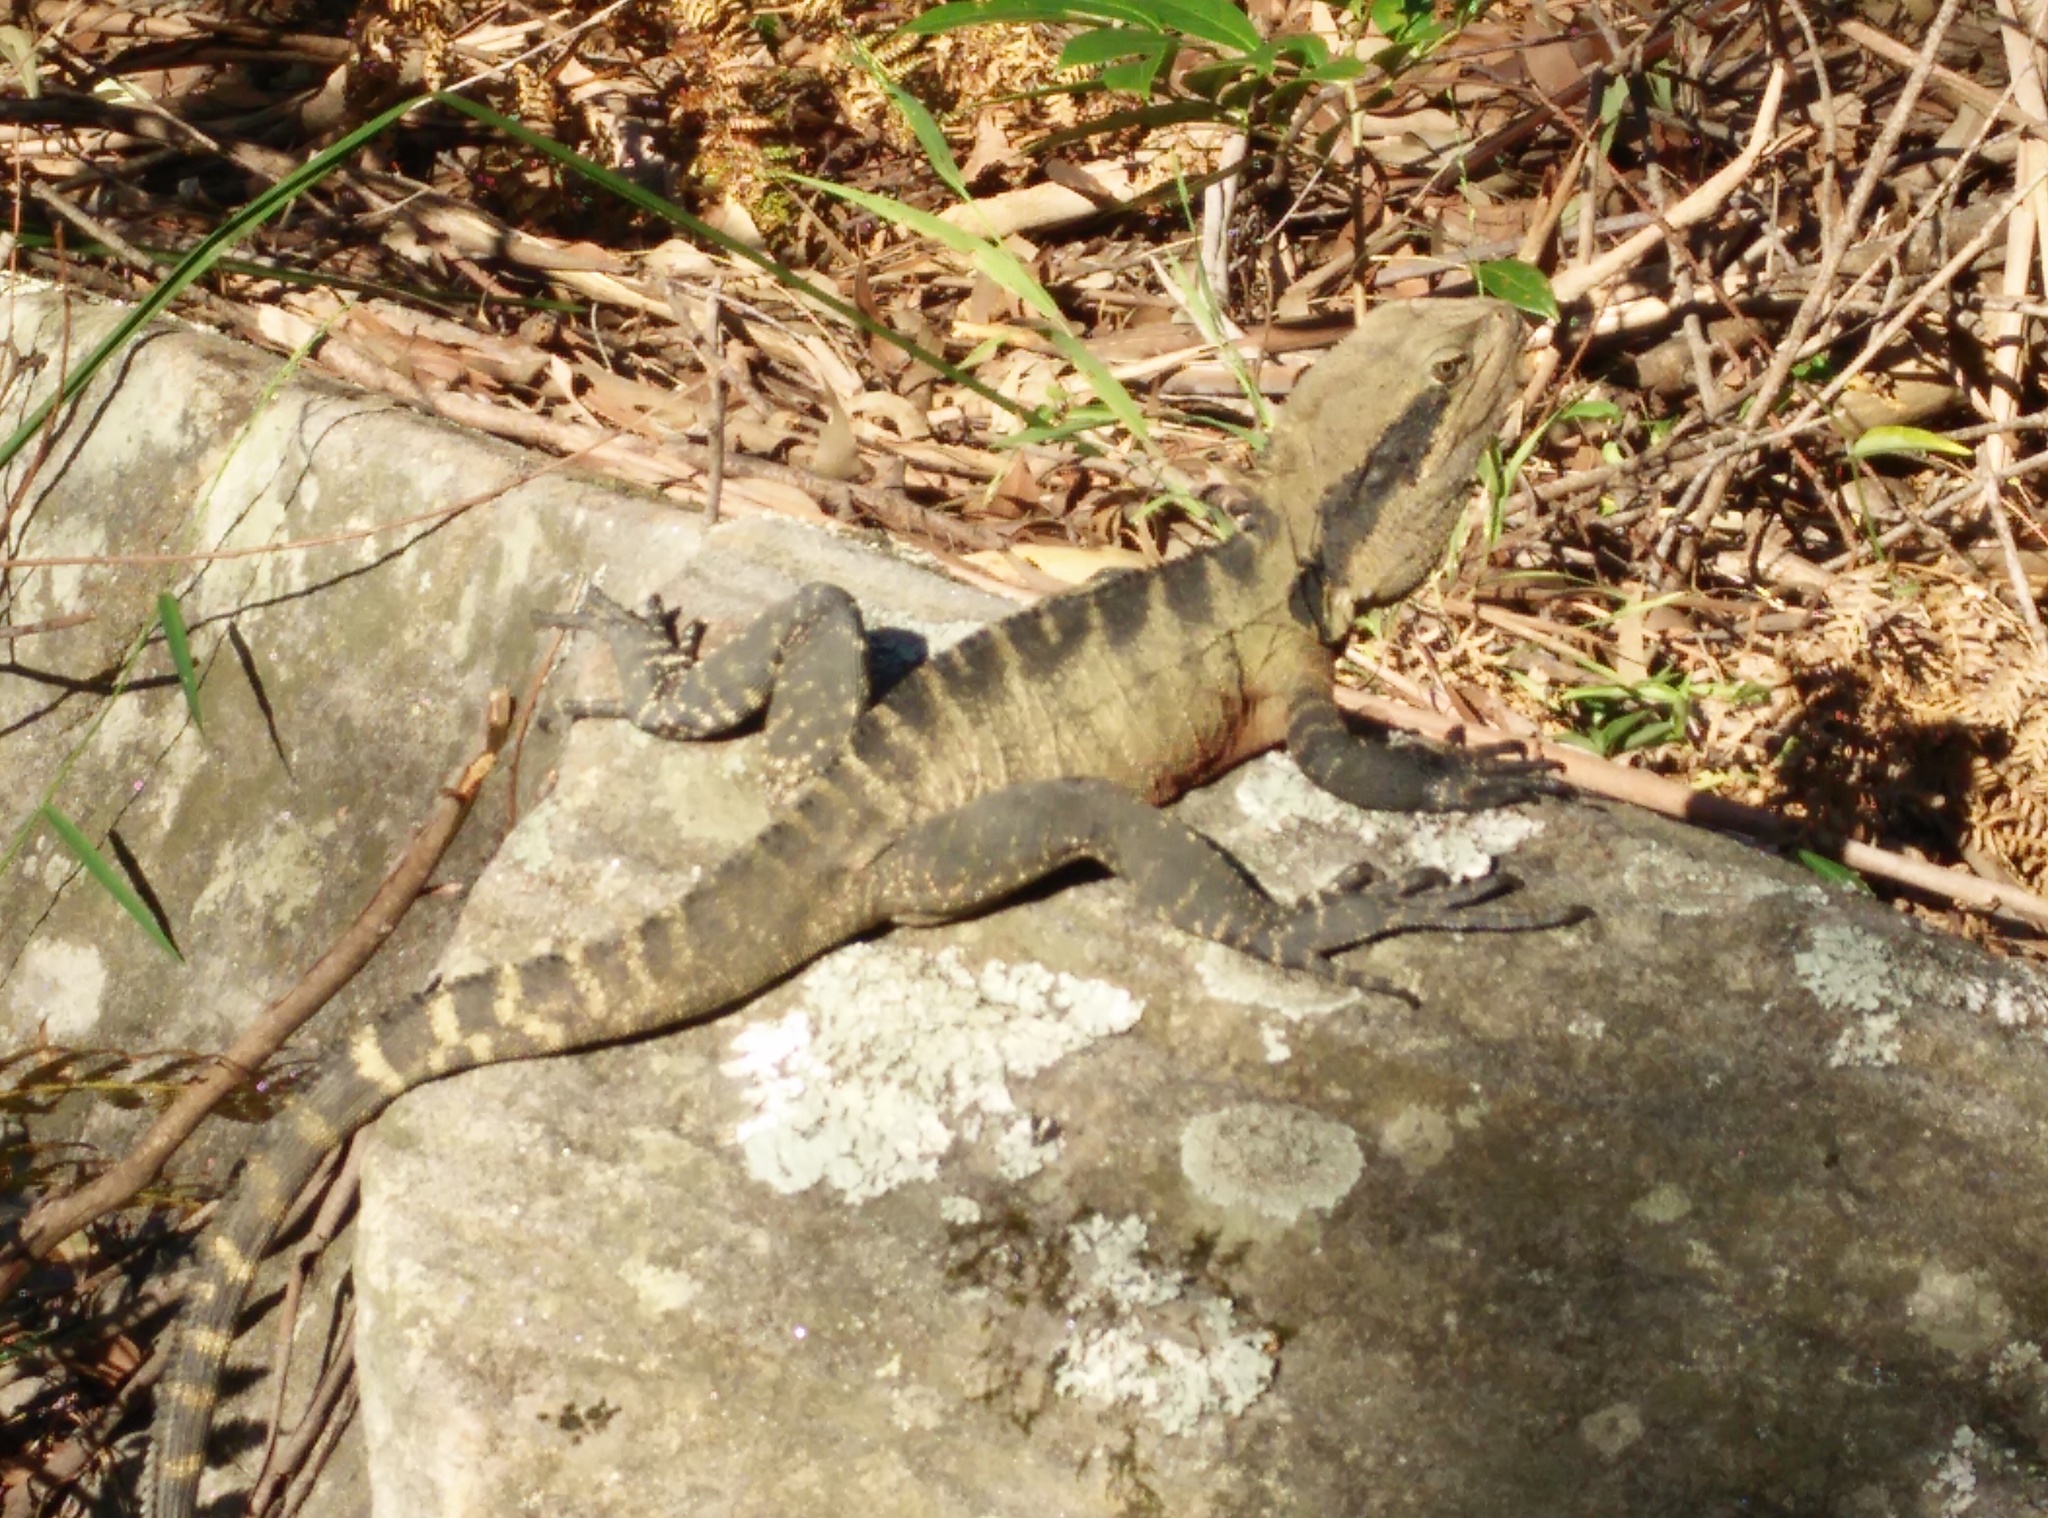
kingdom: Animalia
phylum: Chordata
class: Squamata
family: Agamidae
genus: Intellagama
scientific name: Intellagama lesueurii
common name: Eastern water dragon
